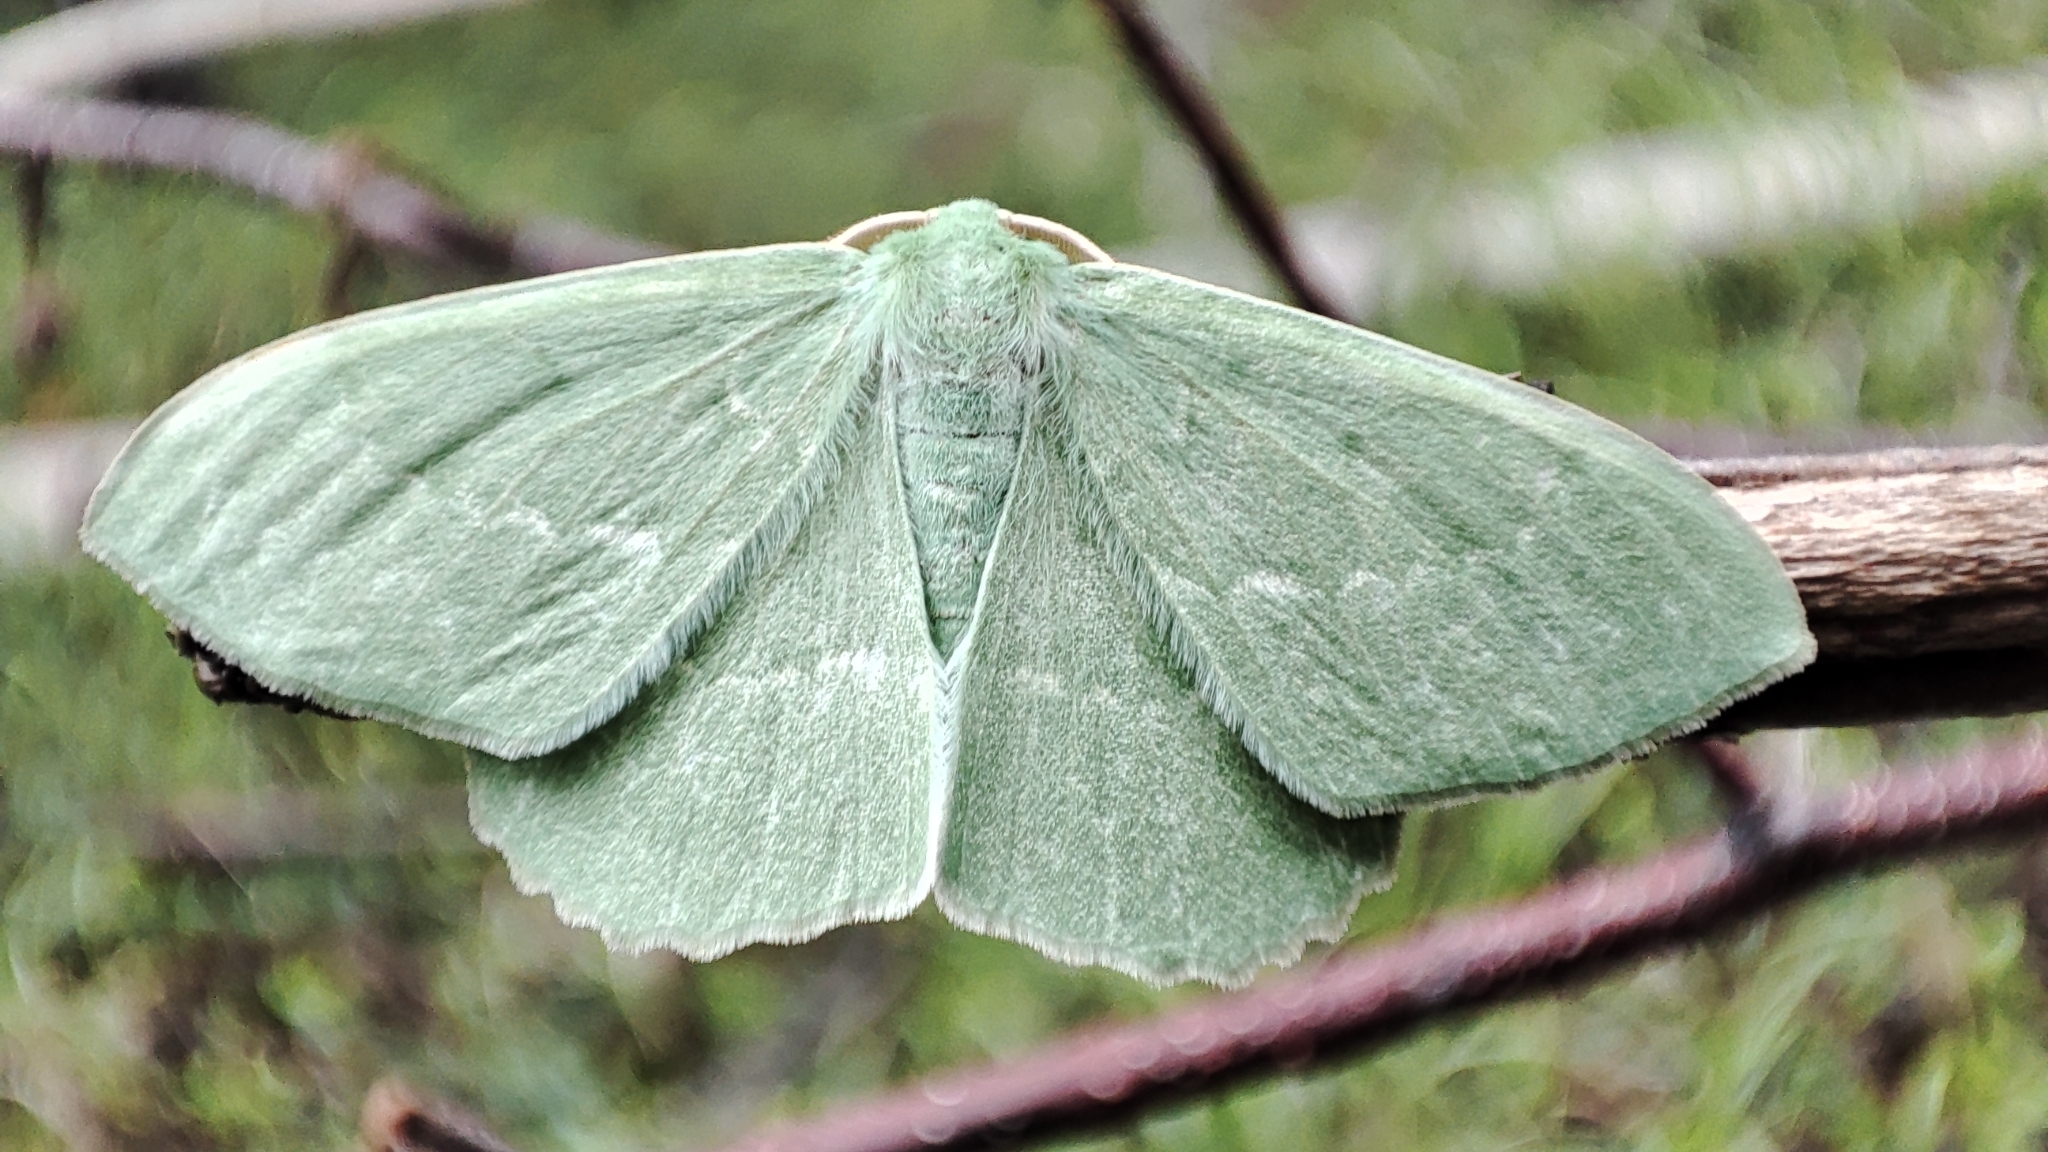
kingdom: Animalia
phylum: Arthropoda
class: Insecta
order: Lepidoptera
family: Geometridae
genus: Geometra
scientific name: Geometra papilionaria
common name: Large emerald
